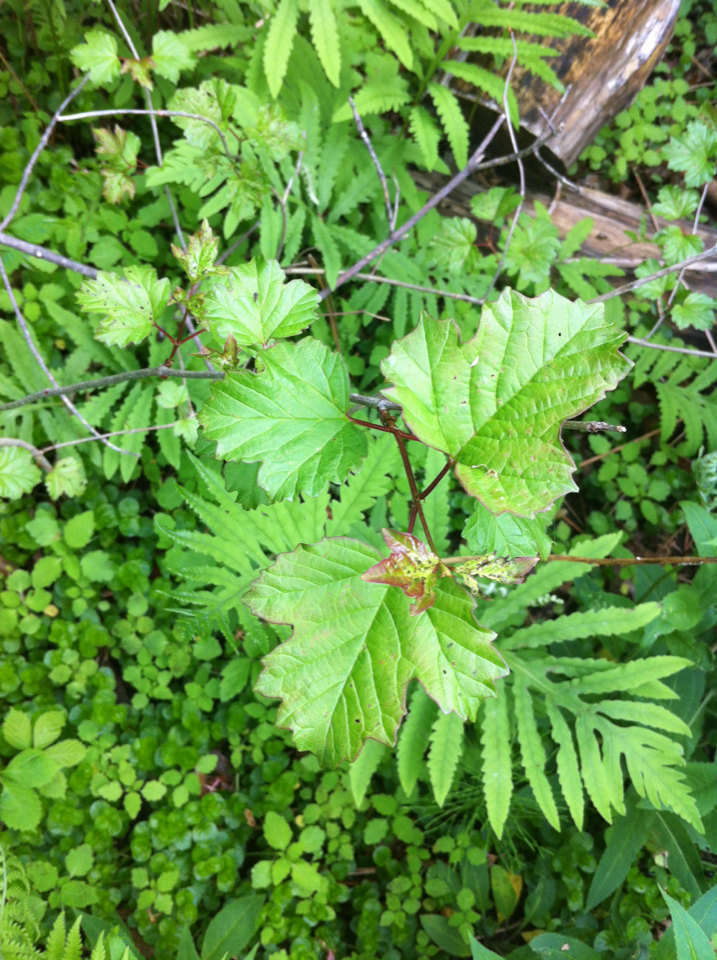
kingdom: Plantae
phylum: Tracheophyta
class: Magnoliopsida
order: Dipsacales
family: Viburnaceae
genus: Viburnum
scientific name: Viburnum opulus
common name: Guelder-rose
